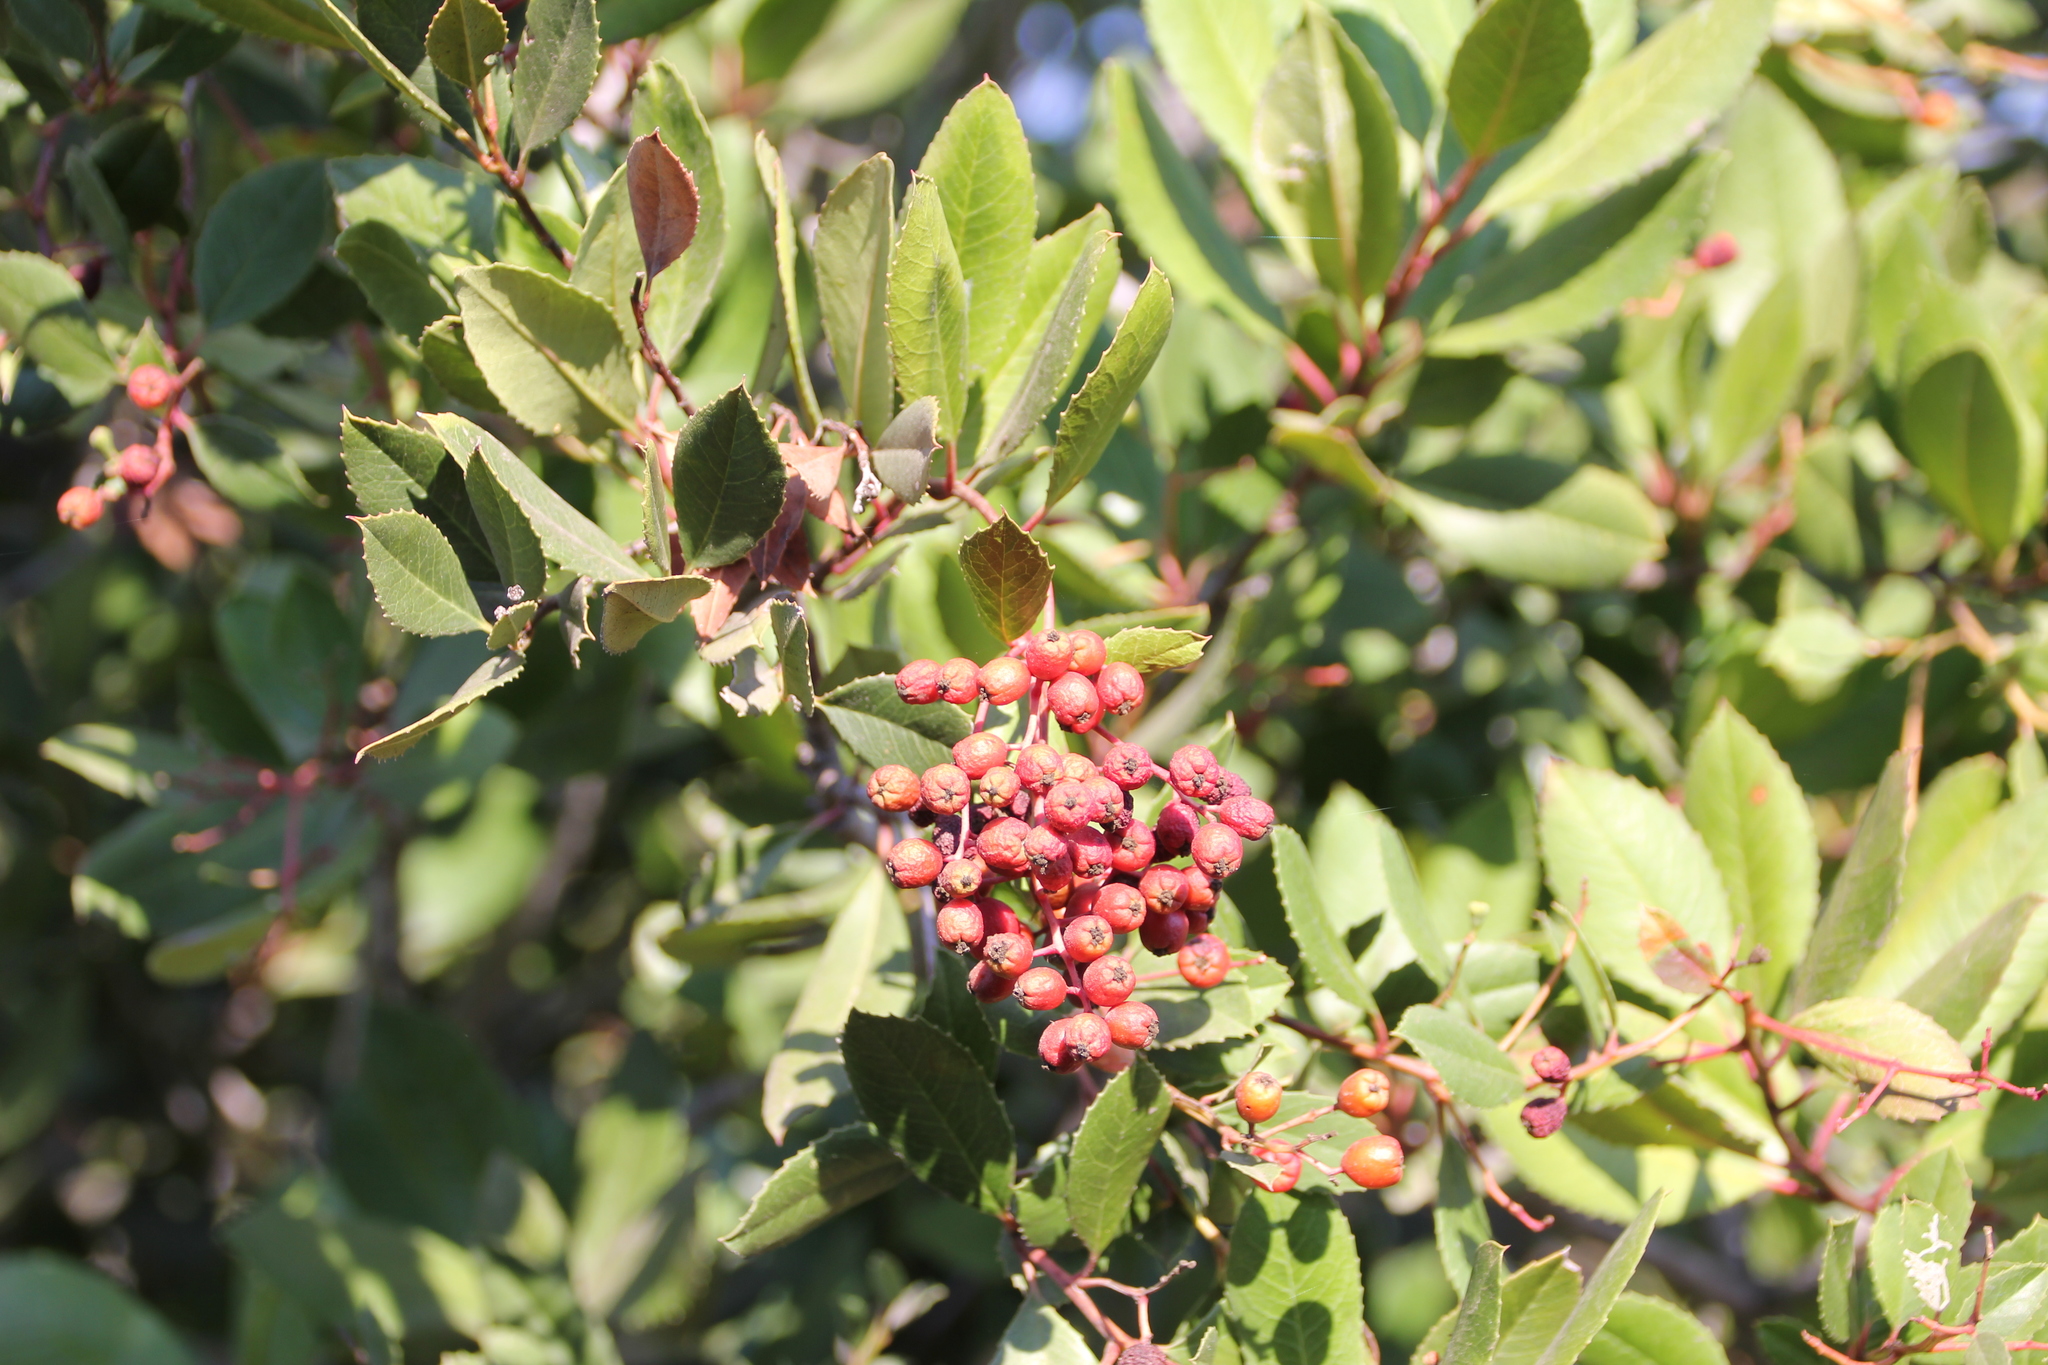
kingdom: Plantae
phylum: Tracheophyta
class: Magnoliopsida
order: Rosales
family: Rosaceae
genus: Heteromeles
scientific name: Heteromeles arbutifolia
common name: California-holly
